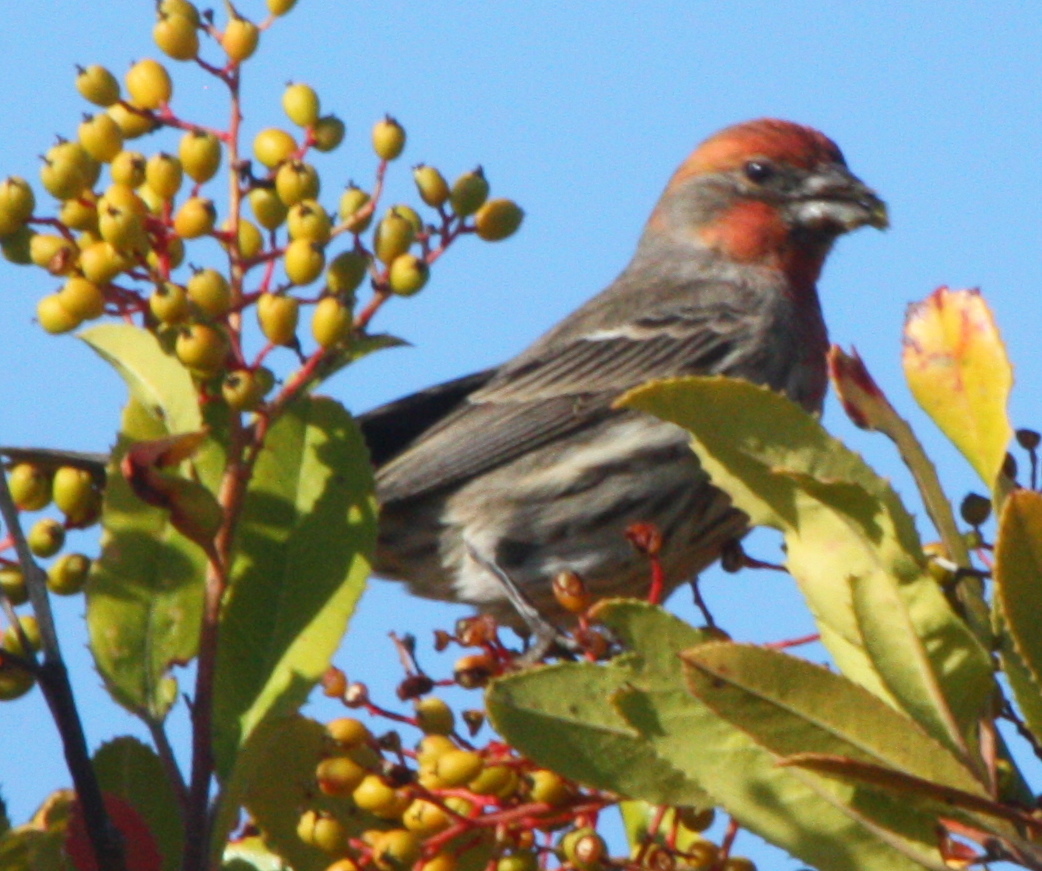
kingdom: Animalia
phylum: Chordata
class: Aves
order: Passeriformes
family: Fringillidae
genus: Haemorhous
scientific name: Haemorhous mexicanus
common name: House finch
